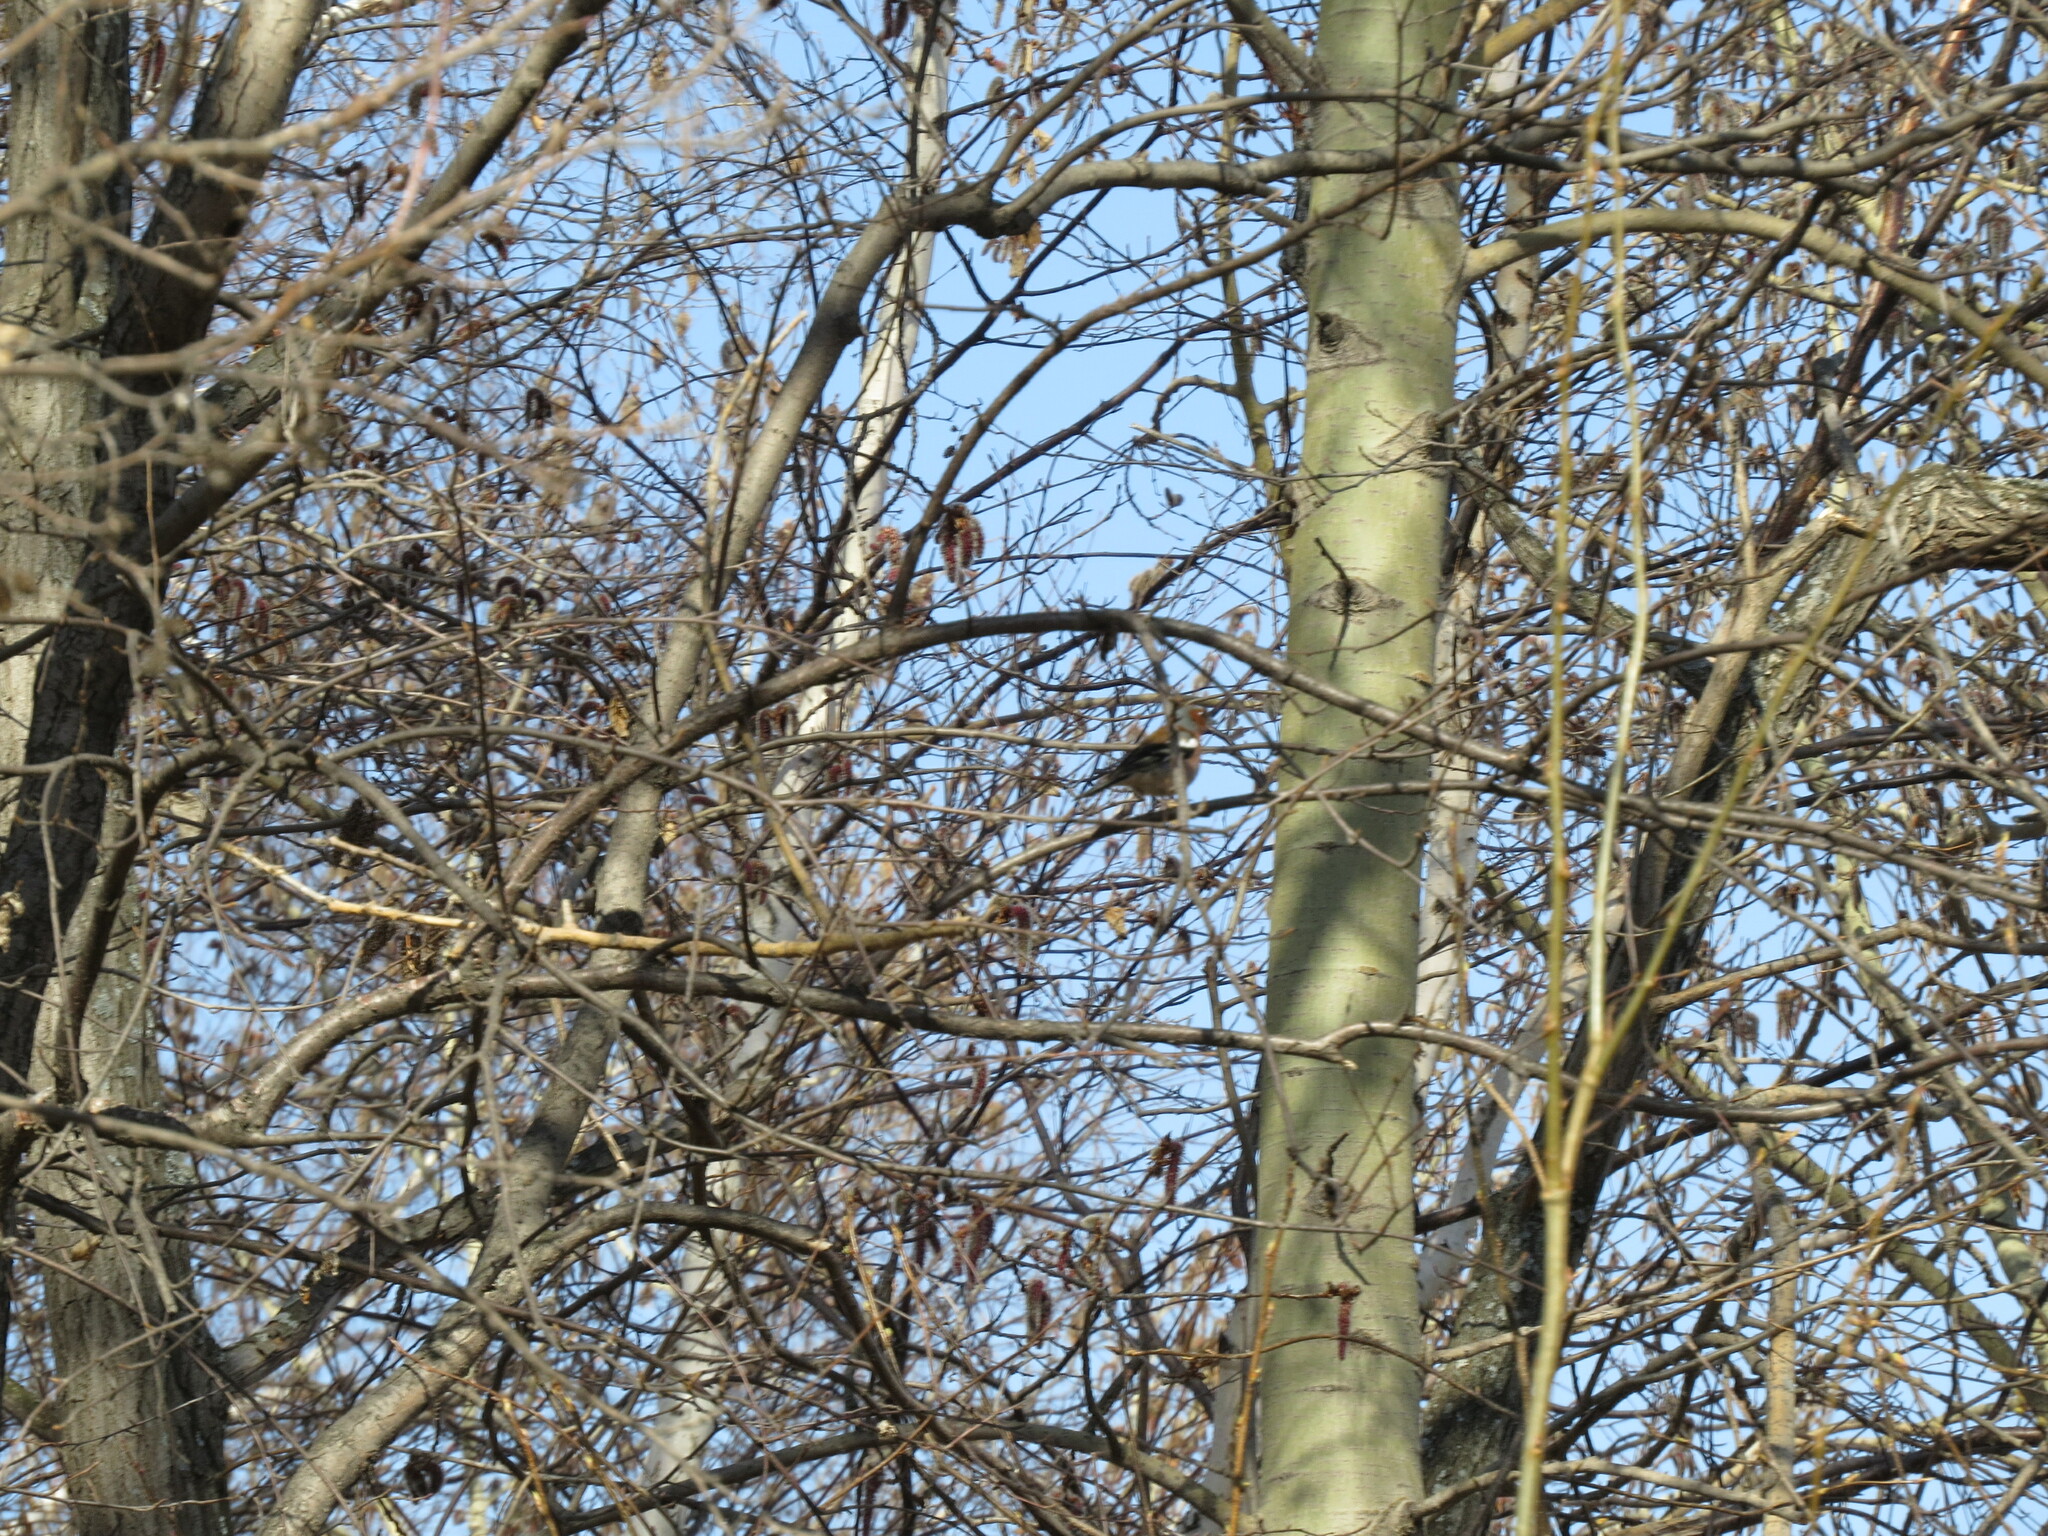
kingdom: Animalia
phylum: Chordata
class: Aves
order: Passeriformes
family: Fringillidae
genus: Fringilla
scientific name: Fringilla coelebs
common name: Common chaffinch
